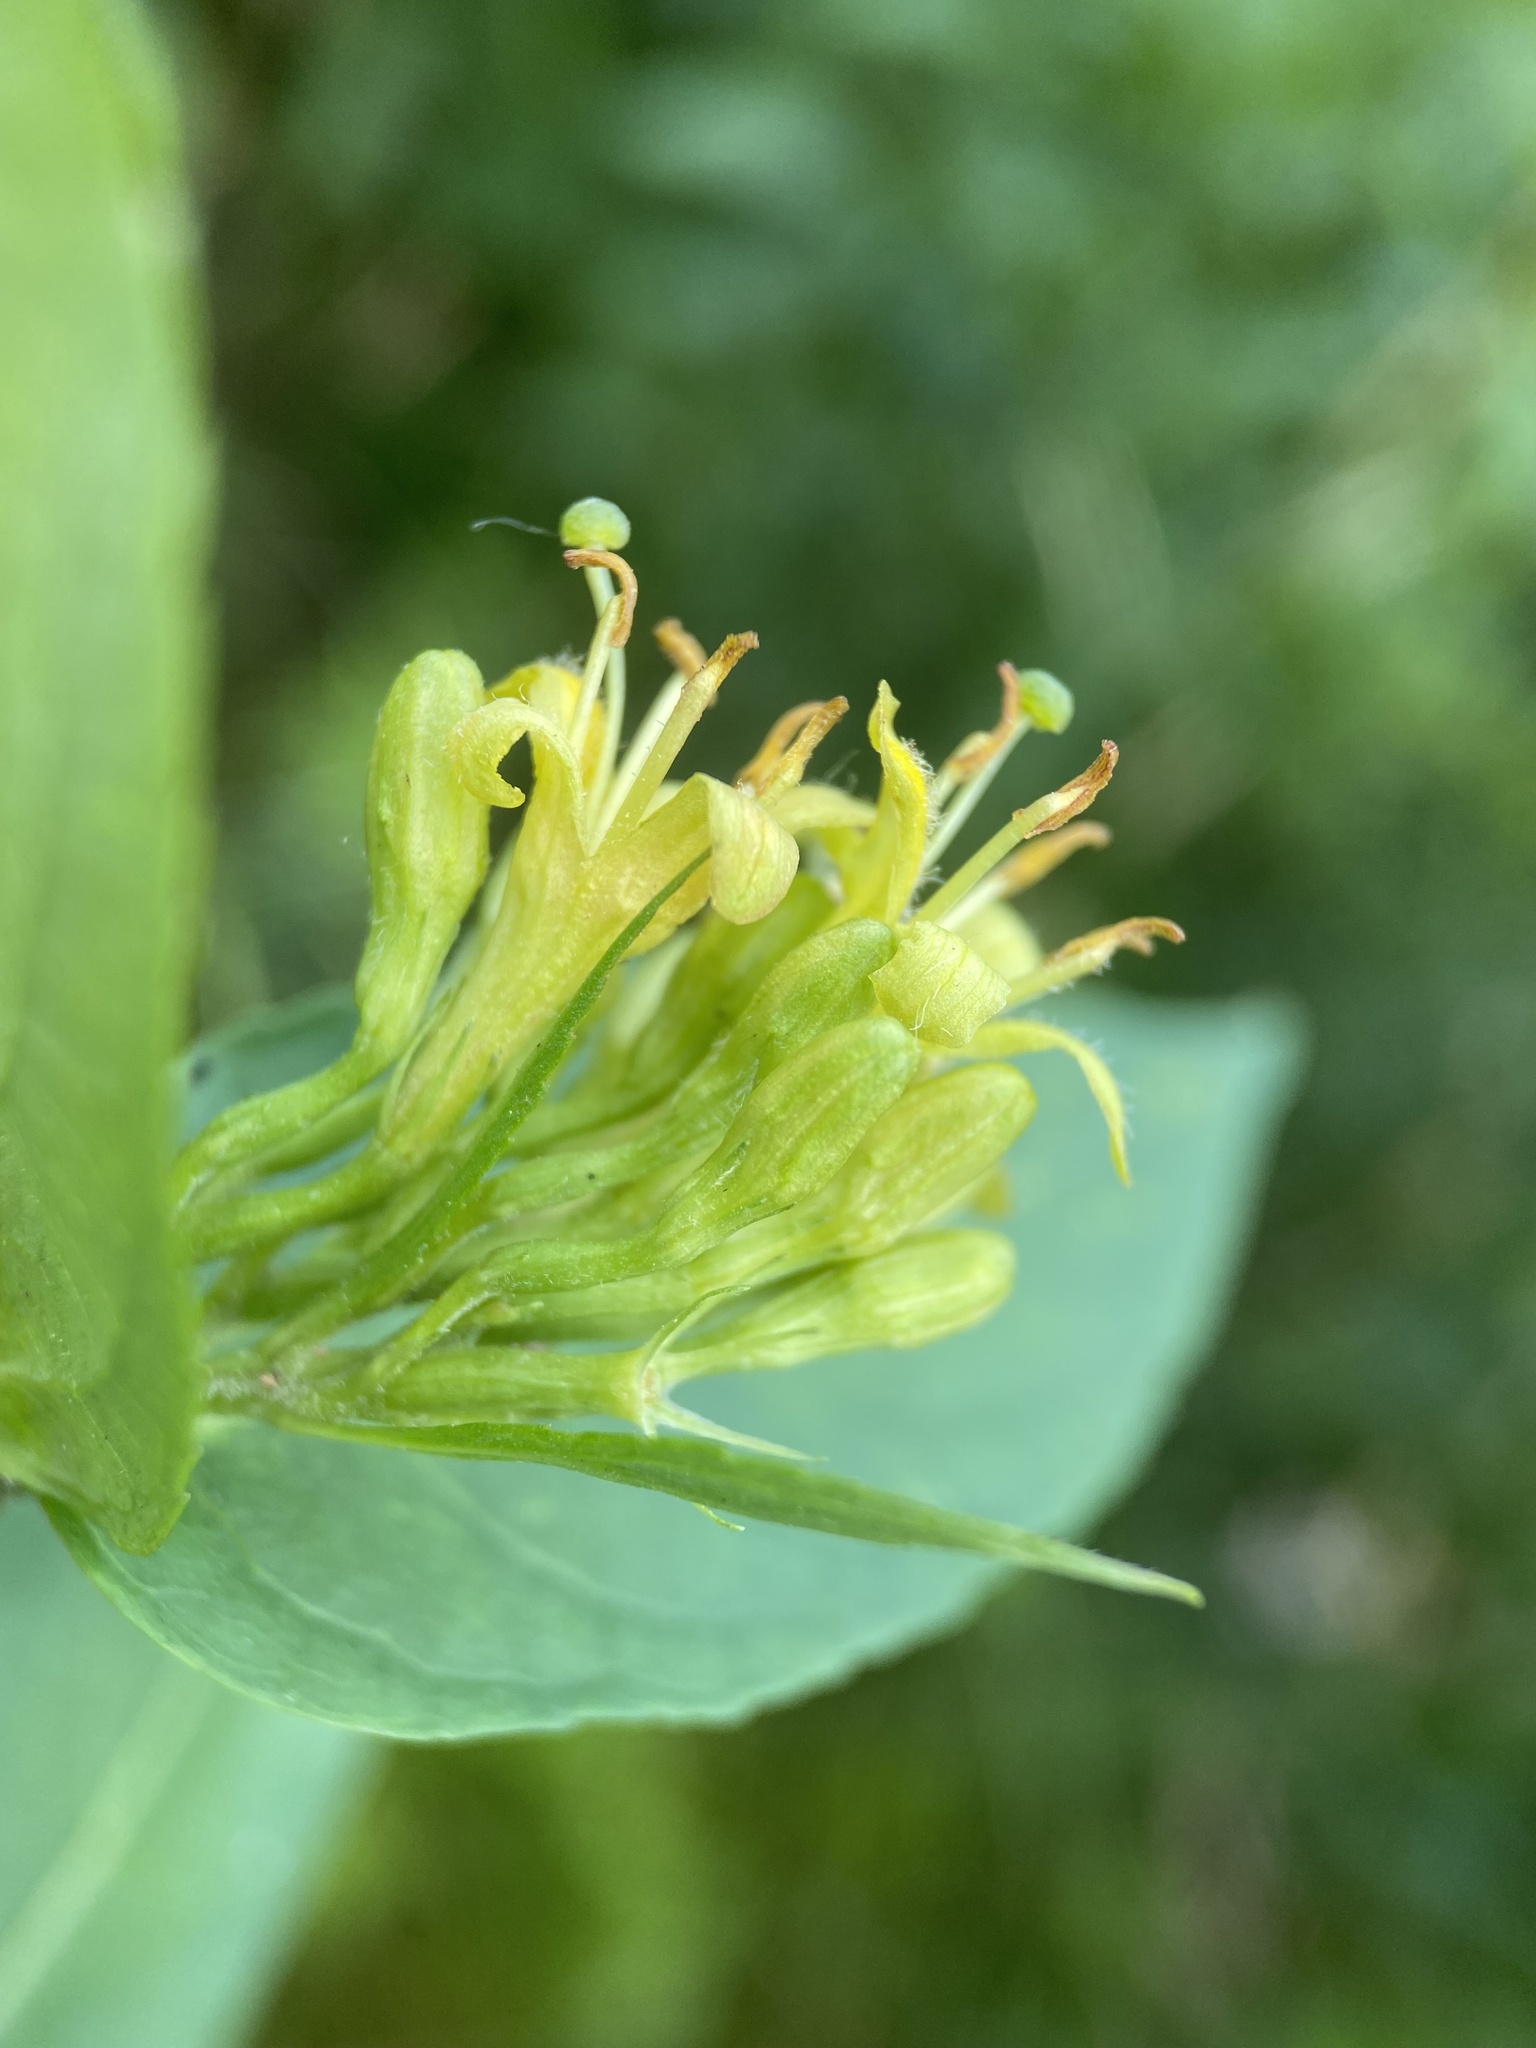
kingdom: Plantae
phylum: Tracheophyta
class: Magnoliopsida
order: Dipsacales
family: Caprifoliaceae
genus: Diervilla
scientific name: Diervilla sessilifolia
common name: Bush-honeysuckle
